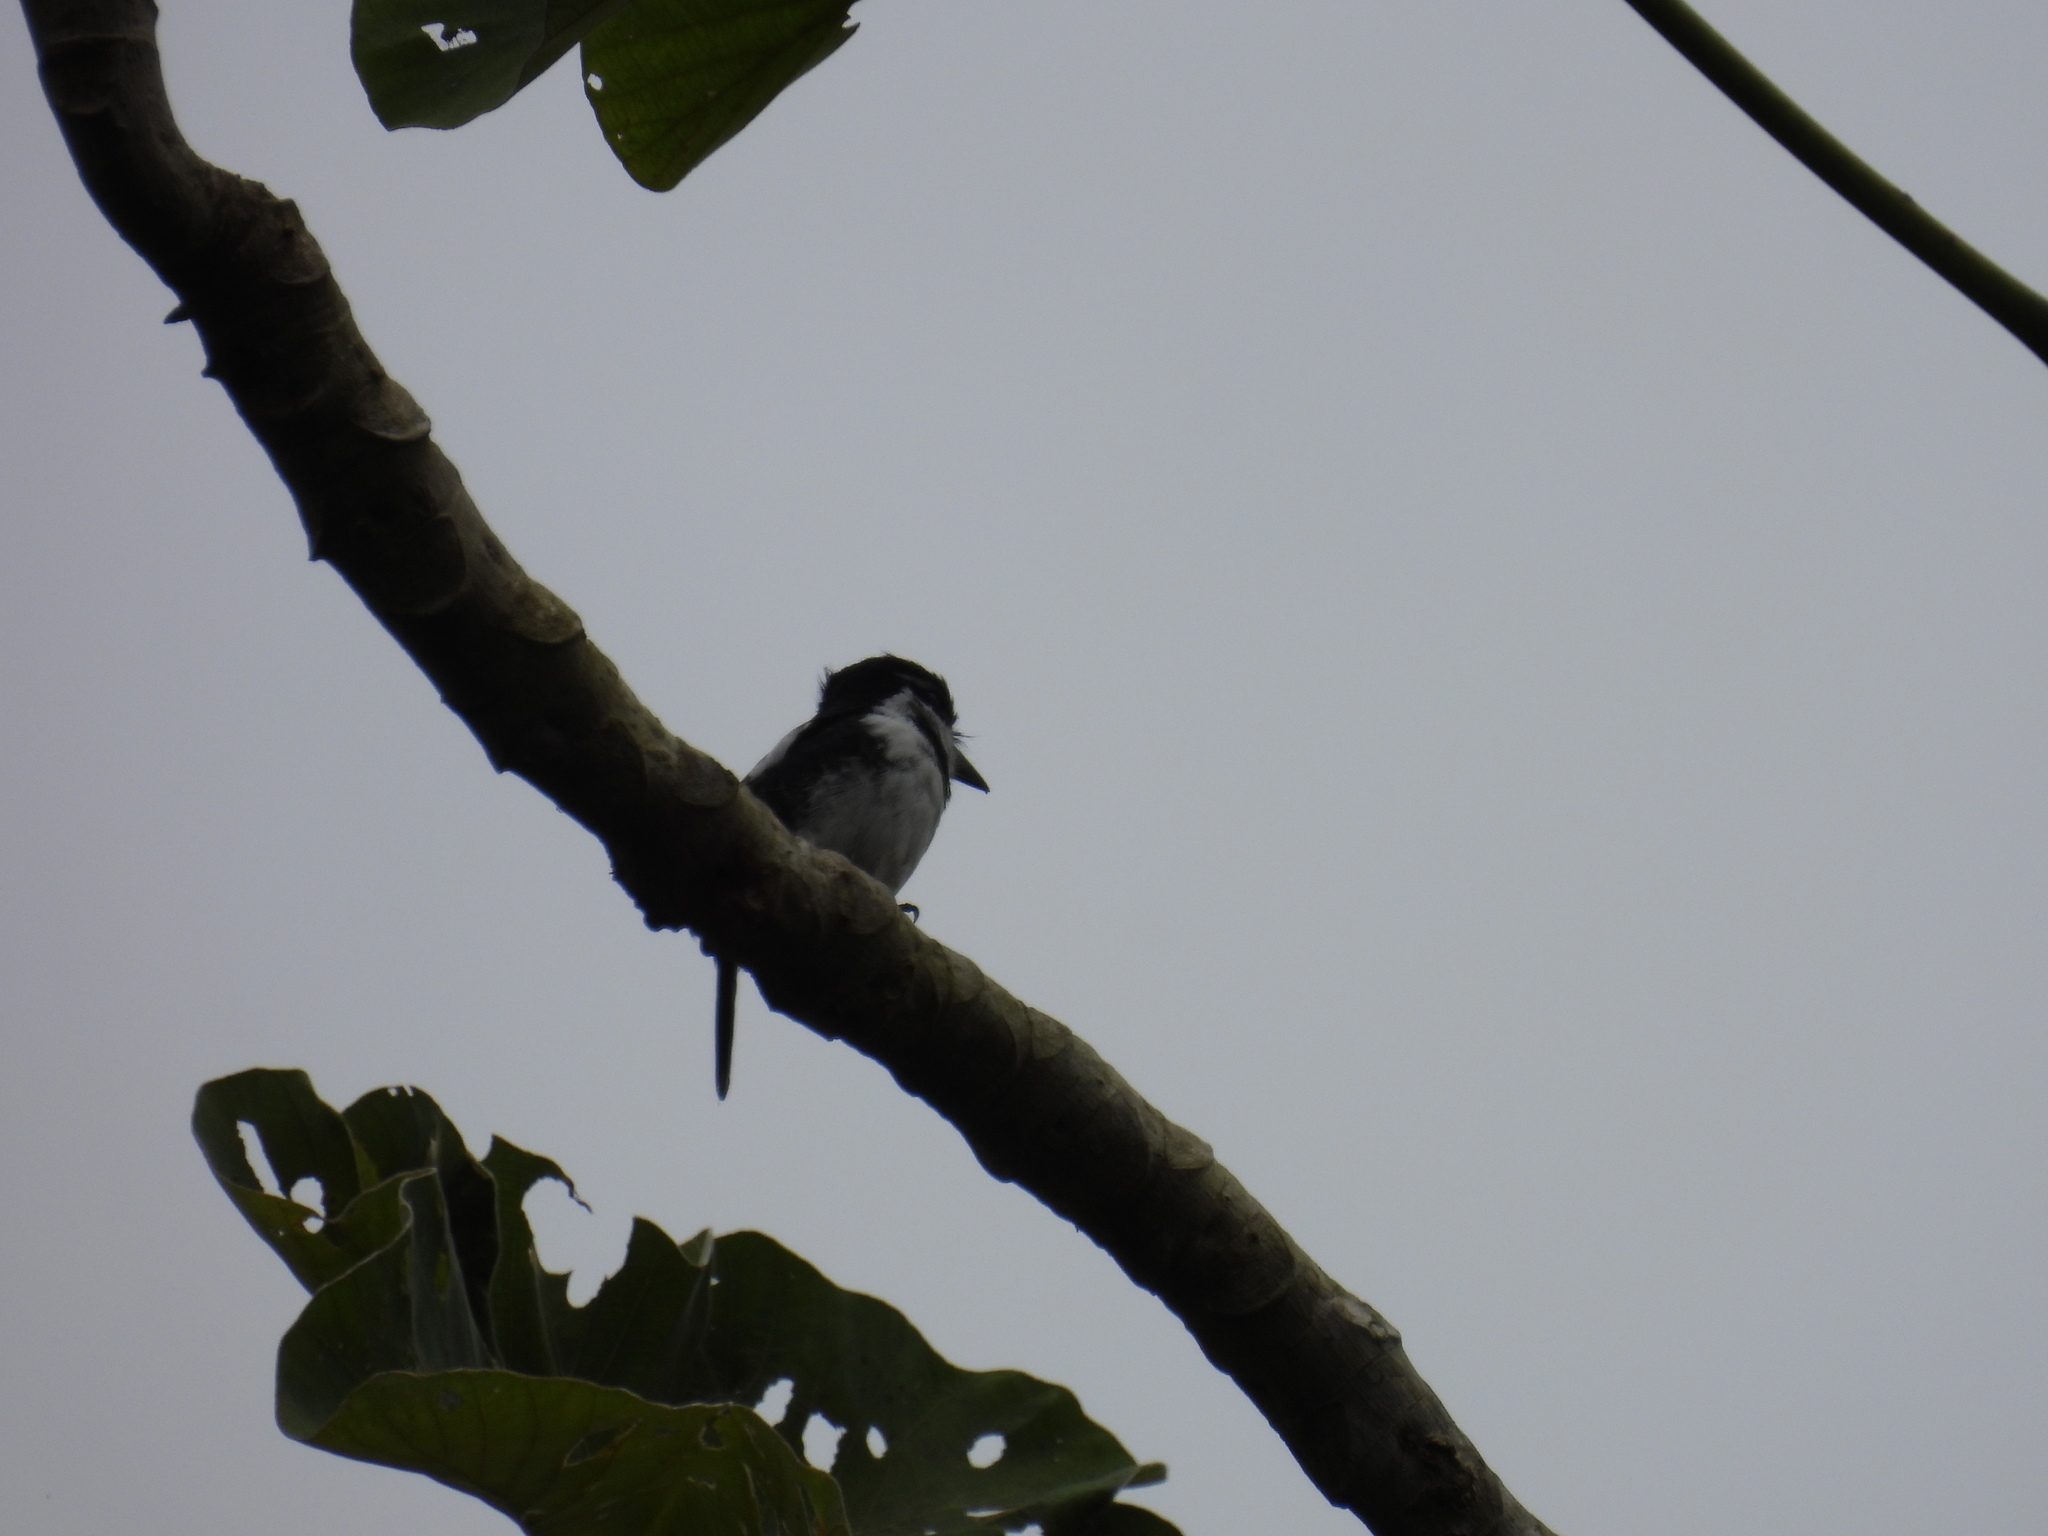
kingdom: Animalia
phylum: Chordata
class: Aves
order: Piciformes
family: Bucconidae
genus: Notharchus
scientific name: Notharchus tectus
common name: Pied puffbird
